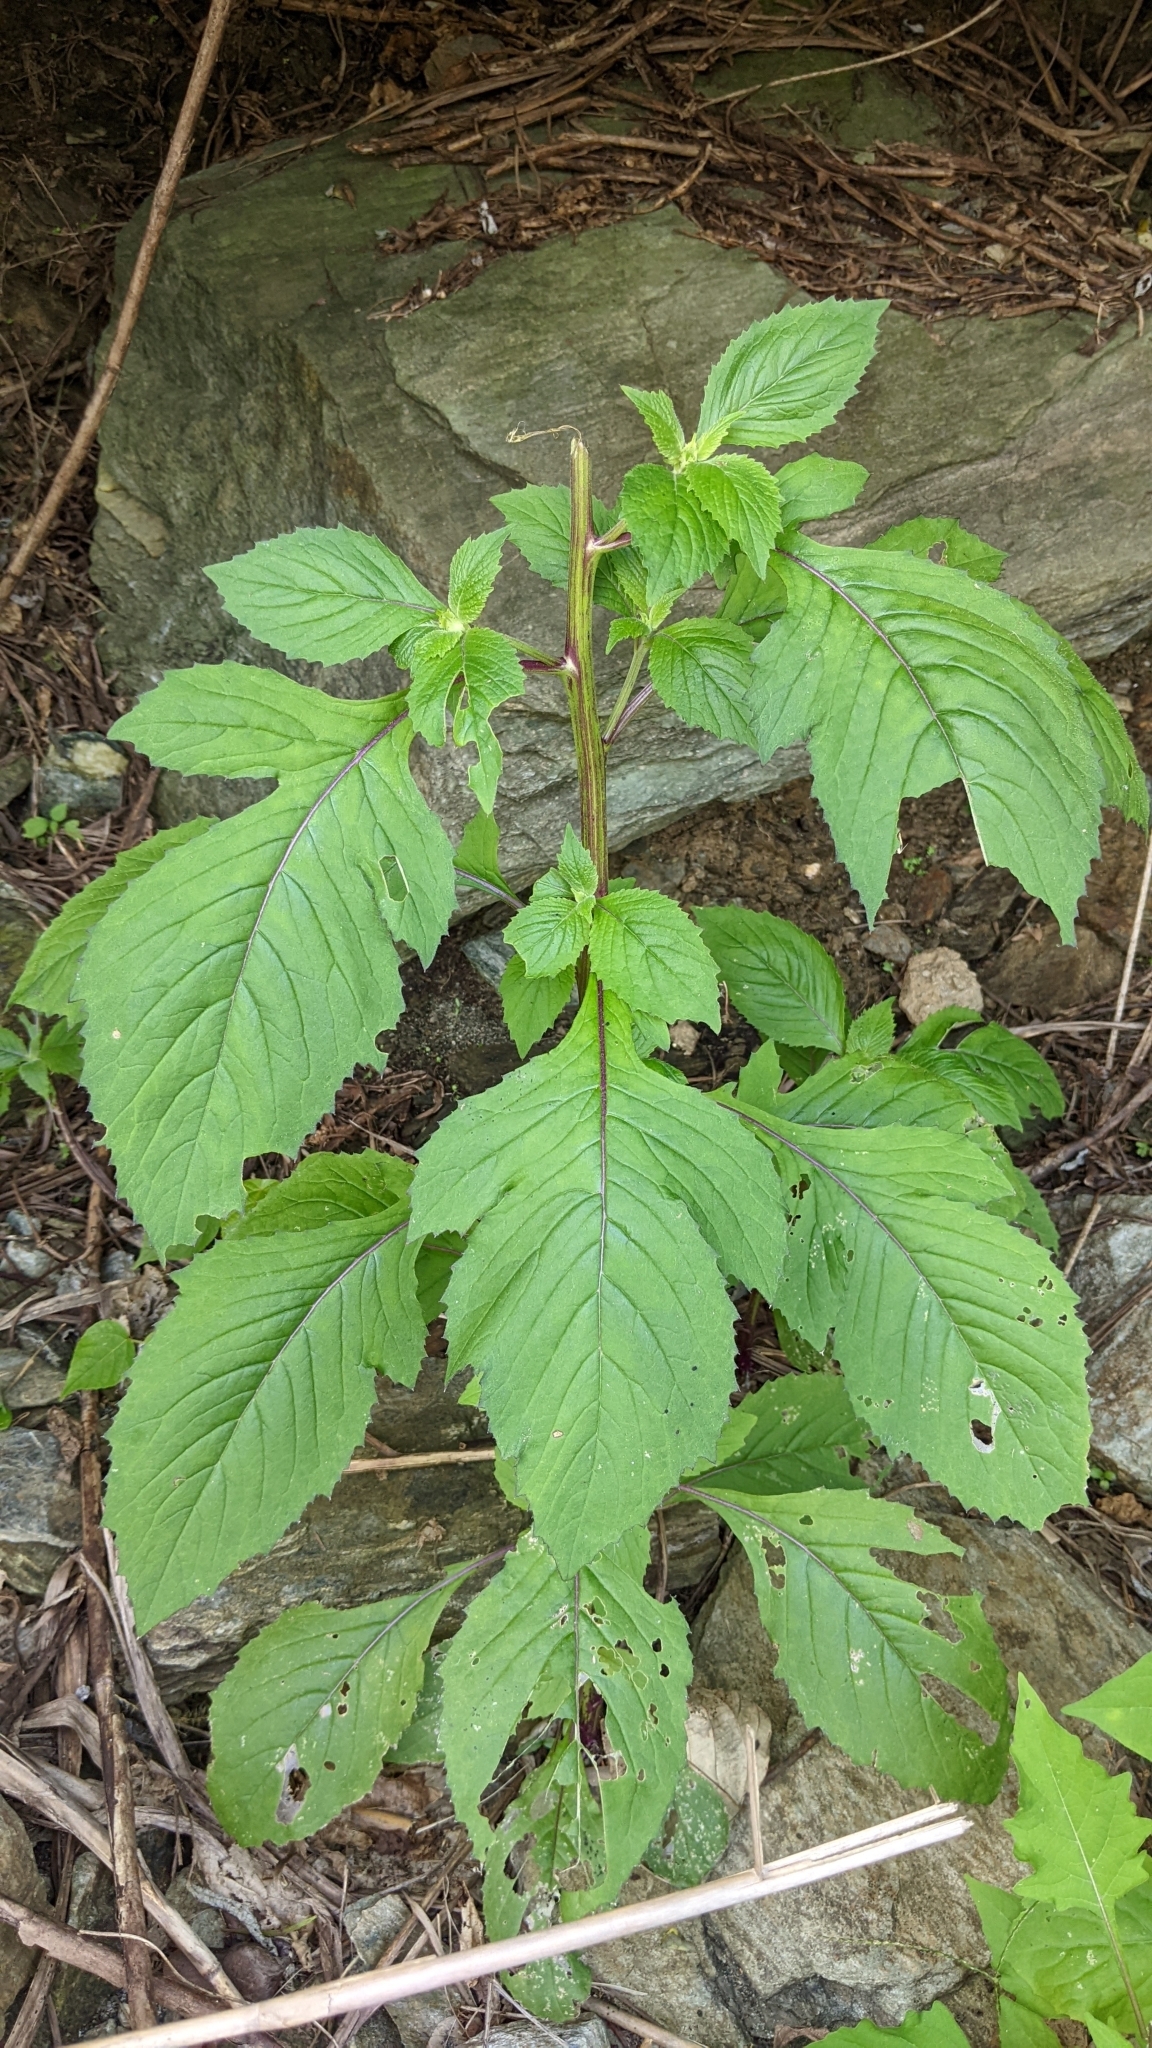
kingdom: Plantae
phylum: Tracheophyta
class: Magnoliopsida
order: Asterales
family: Asteraceae
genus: Crassocephalum
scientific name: Crassocephalum crepidioides
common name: Redflower ragleaf
